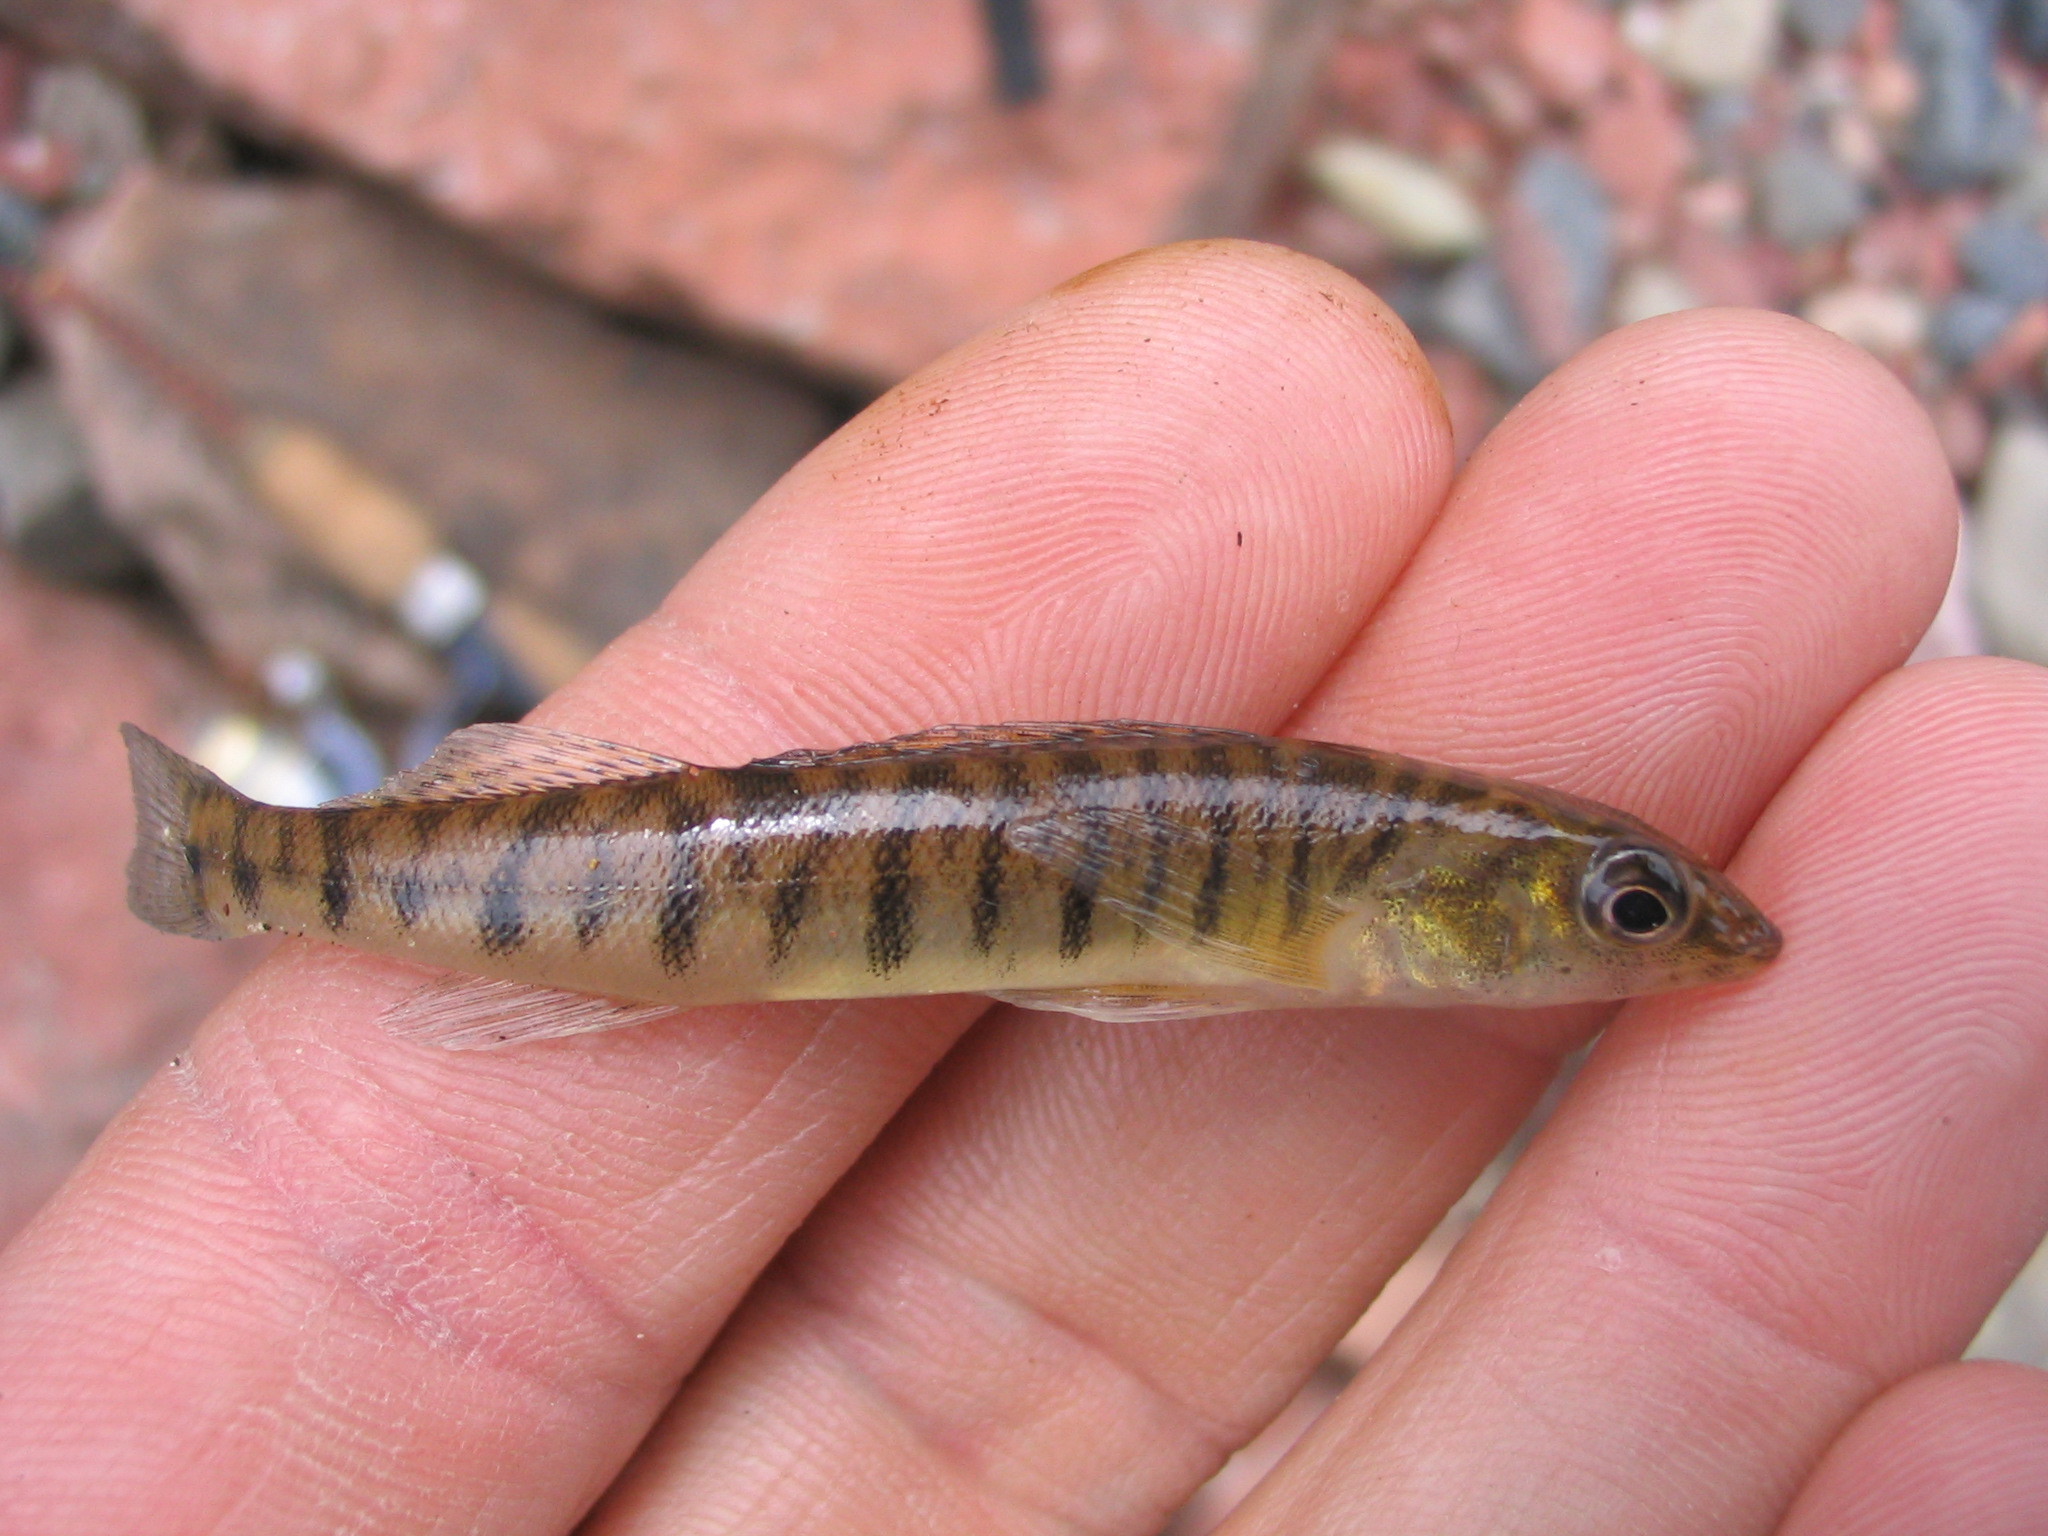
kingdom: Animalia
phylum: Chordata
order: Perciformes
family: Percidae
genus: Percina
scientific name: Percina caprodes
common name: Logperch
